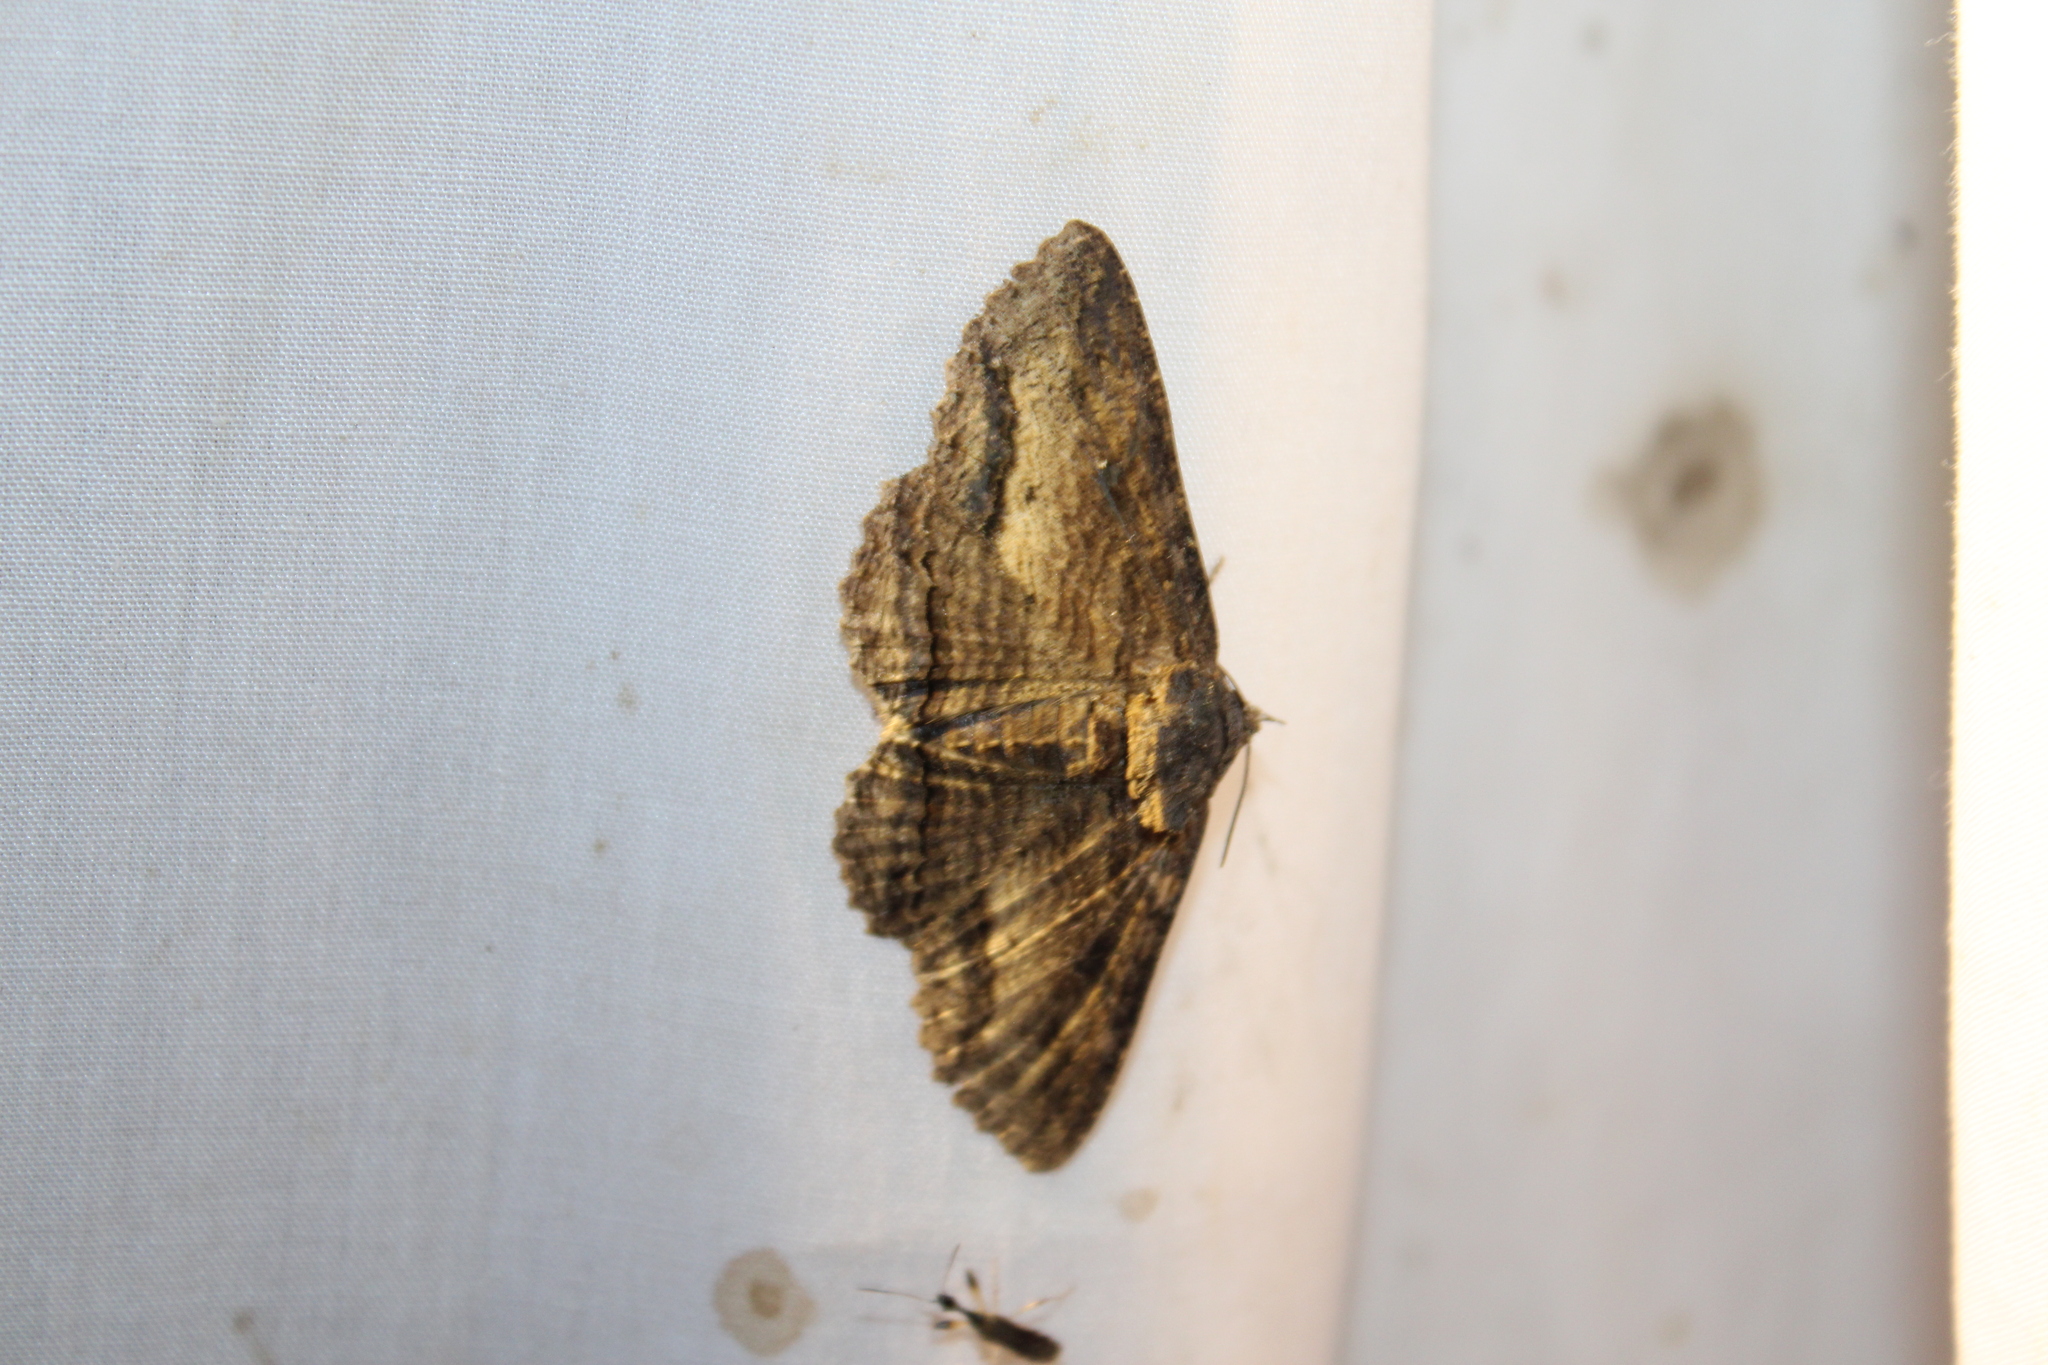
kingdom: Animalia
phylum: Arthropoda
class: Insecta
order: Lepidoptera
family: Erebidae
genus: Zale
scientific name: Zale lunata
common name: Lunate zale moth
